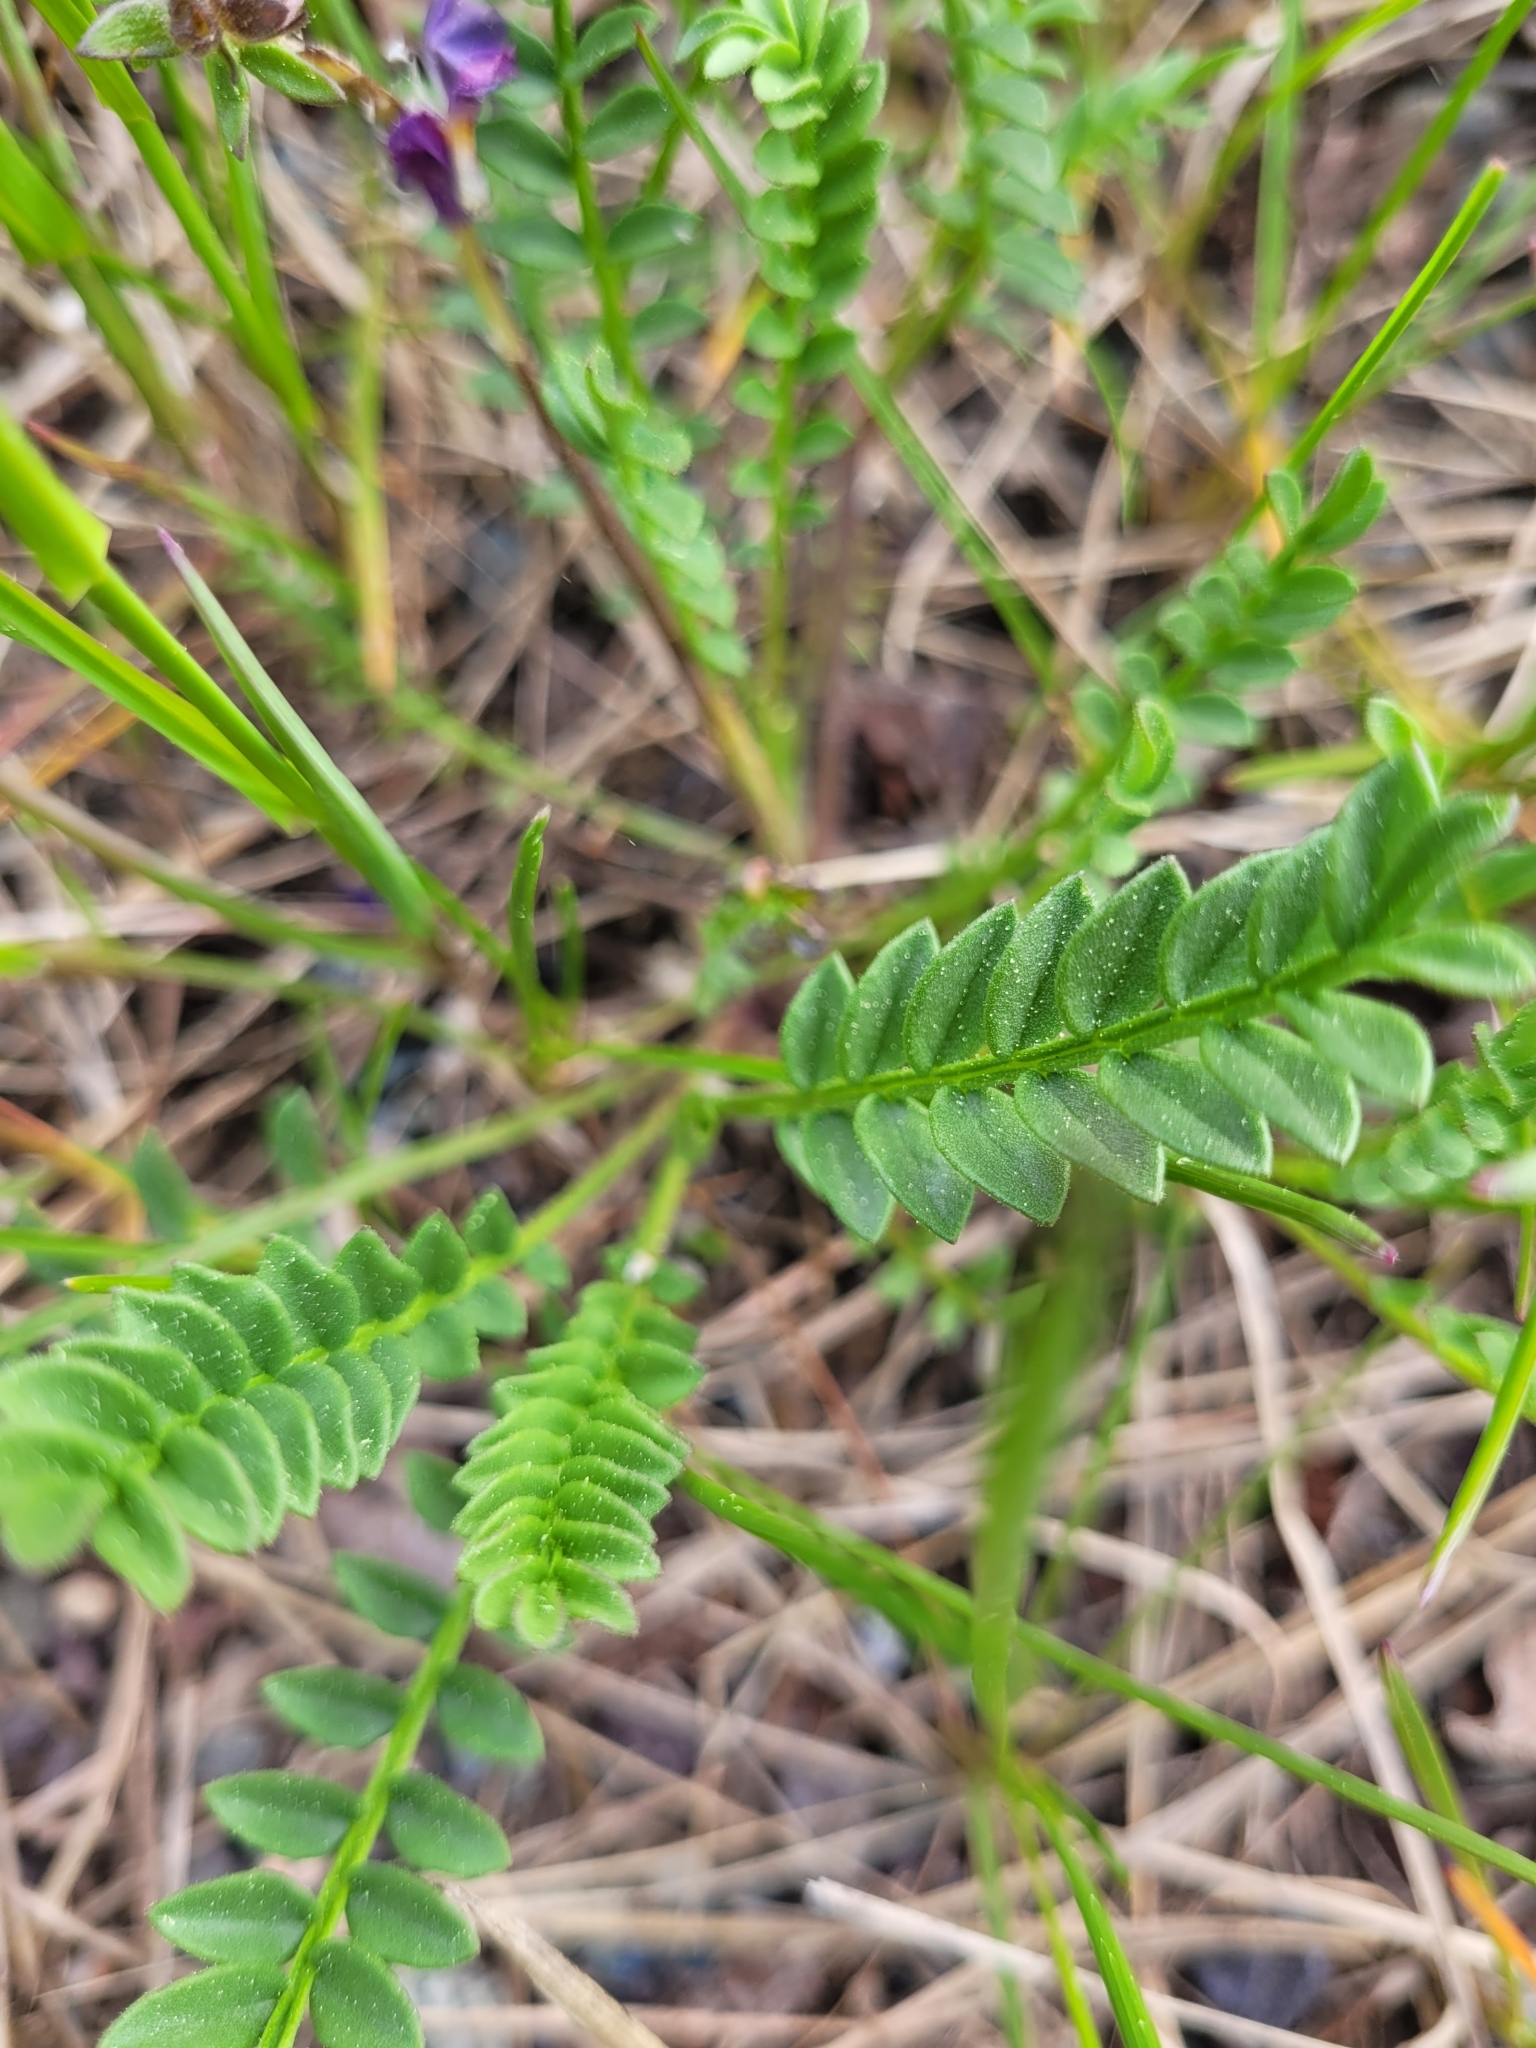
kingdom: Plantae
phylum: Tracheophyta
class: Magnoliopsida
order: Ericales
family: Polemoniaceae
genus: Polemonium
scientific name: Polemonium pulcherrimum
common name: Short jacob's-ladder
